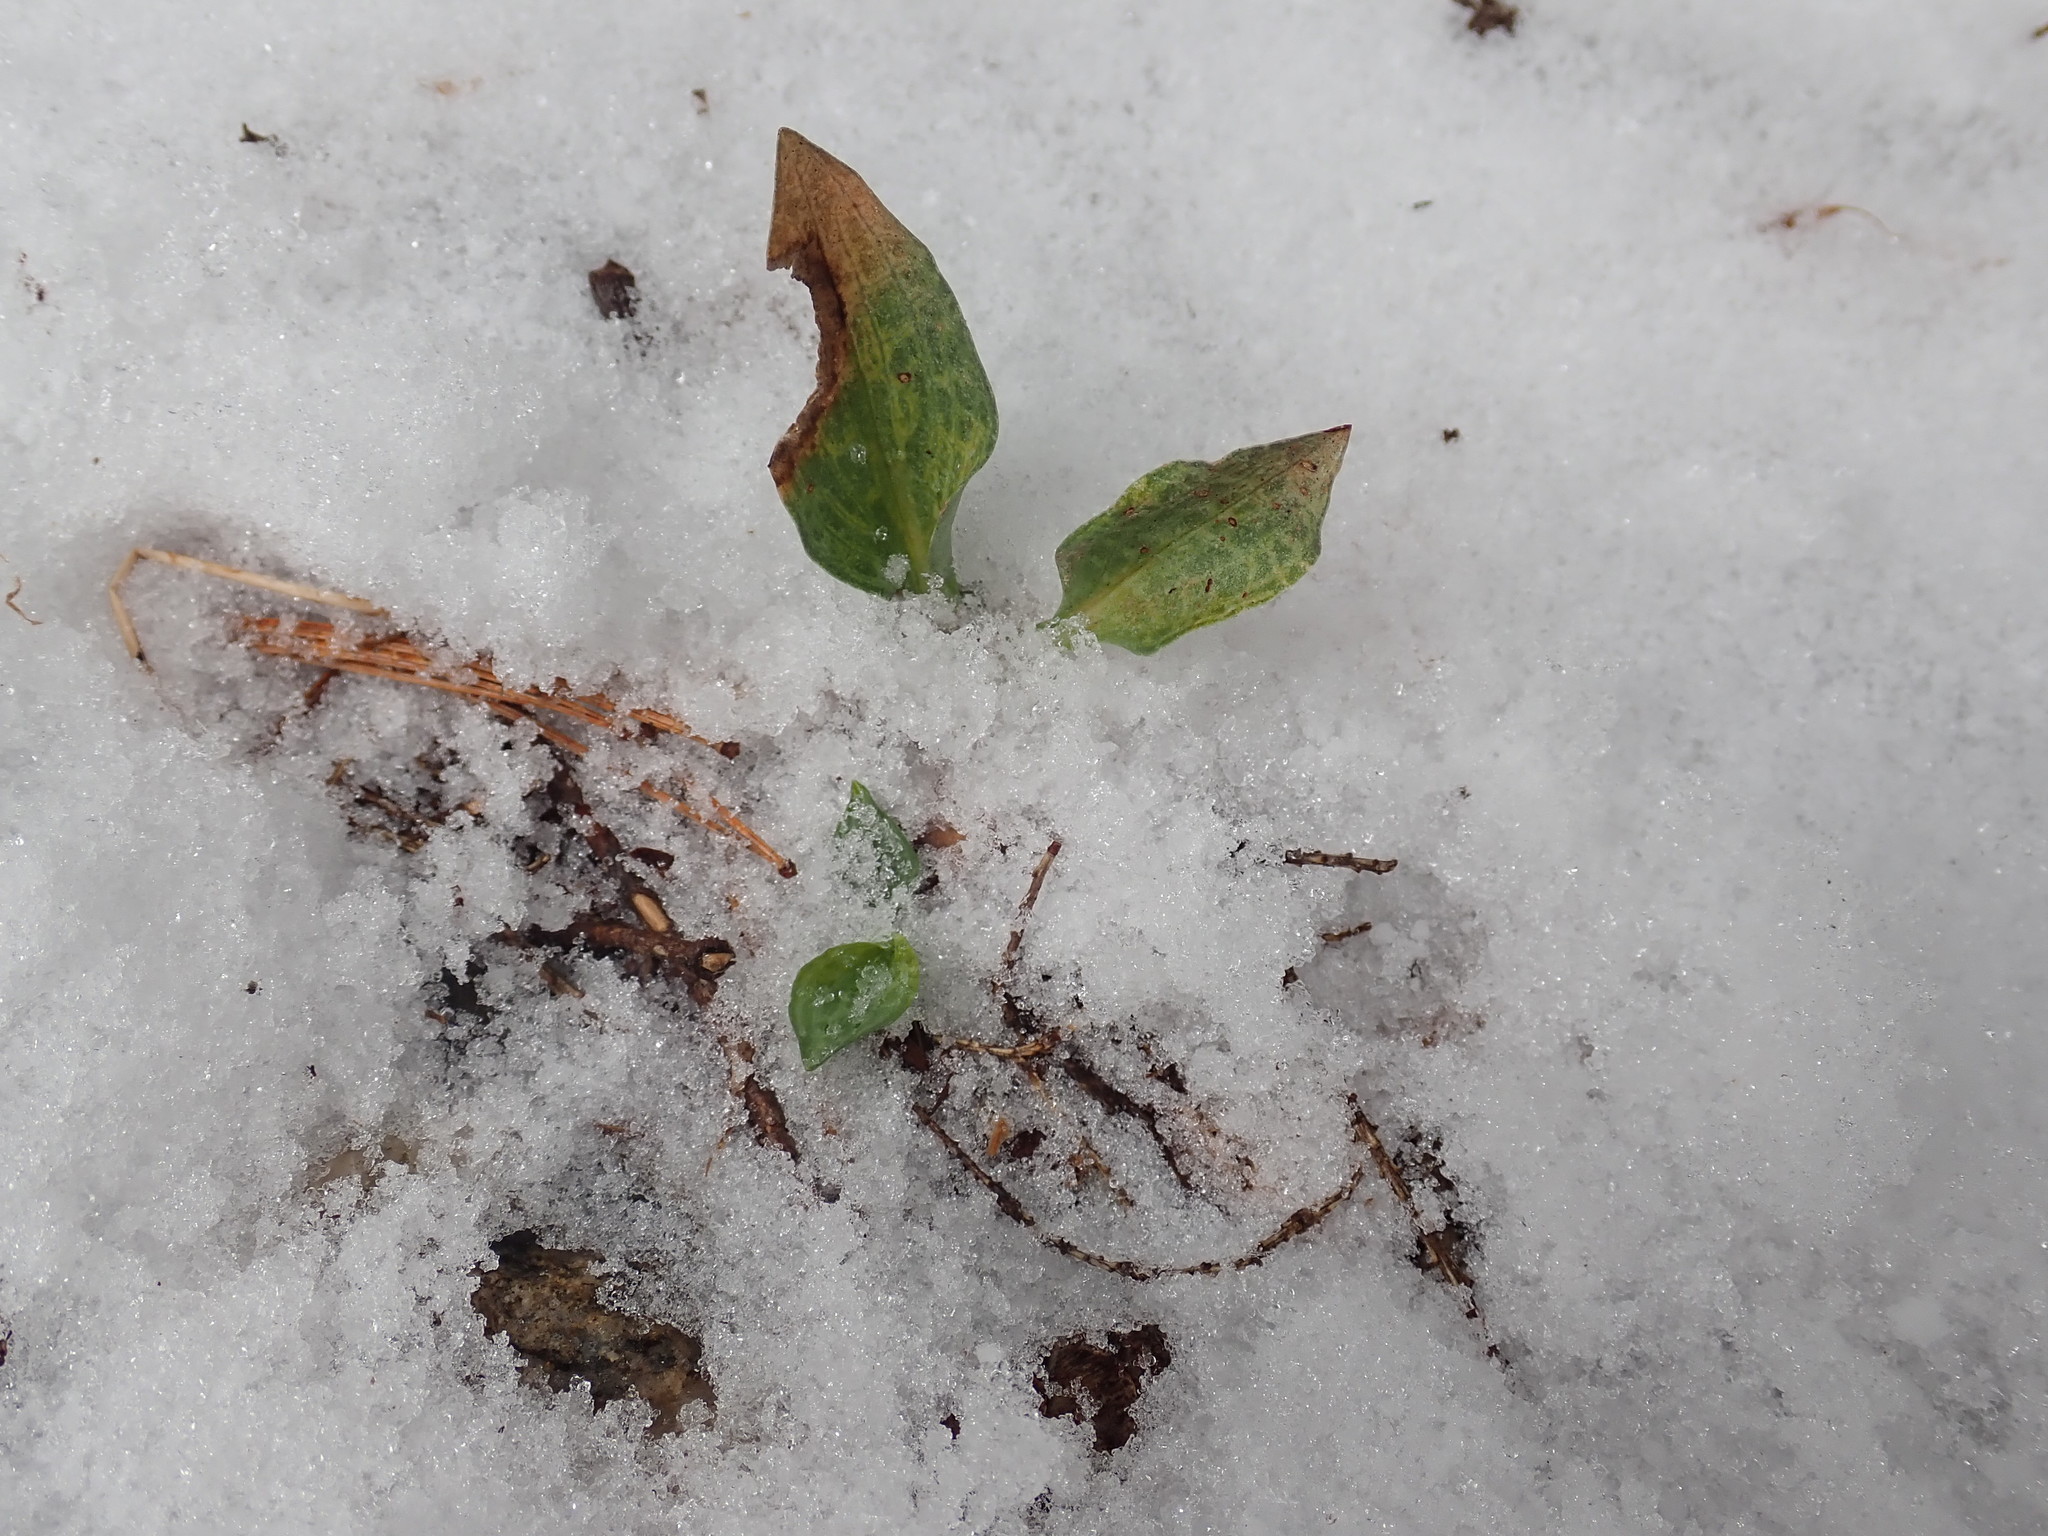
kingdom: Plantae
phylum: Tracheophyta
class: Liliopsida
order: Asparagales
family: Orchidaceae
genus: Goodyera
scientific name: Goodyera tesselata
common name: Checkered rattlesnake-plantain
